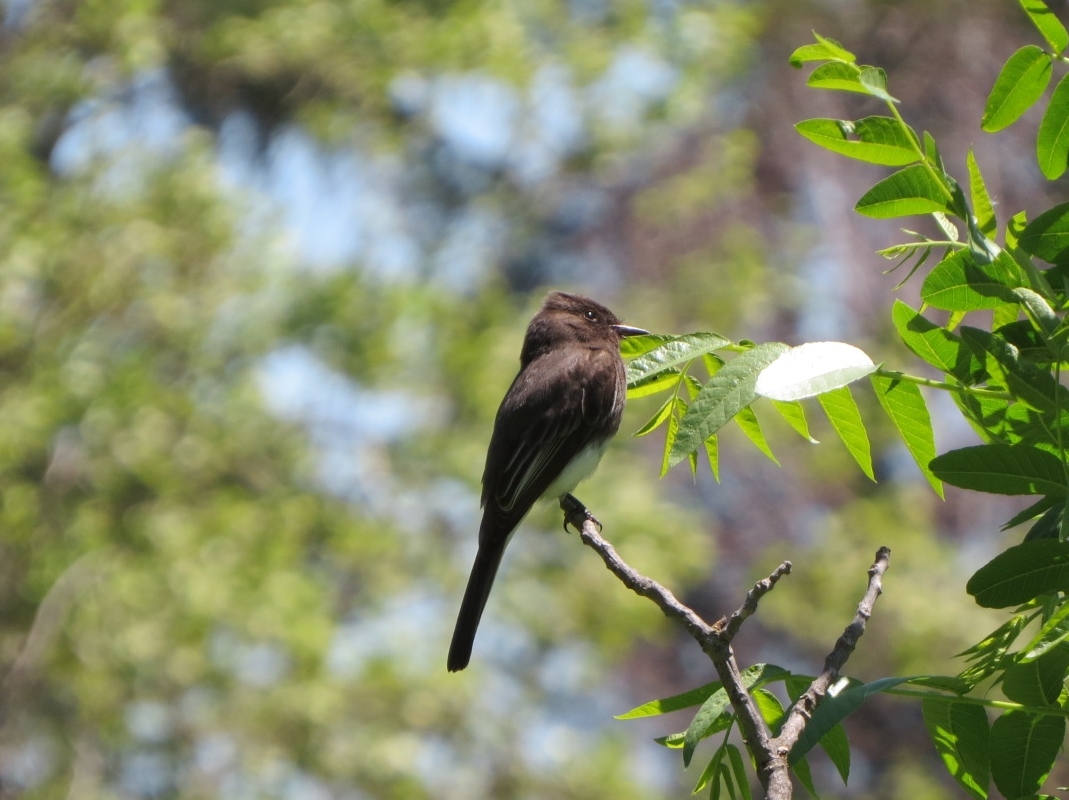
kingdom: Animalia
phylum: Chordata
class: Aves
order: Passeriformes
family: Tyrannidae
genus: Sayornis
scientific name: Sayornis nigricans
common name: Black phoebe
